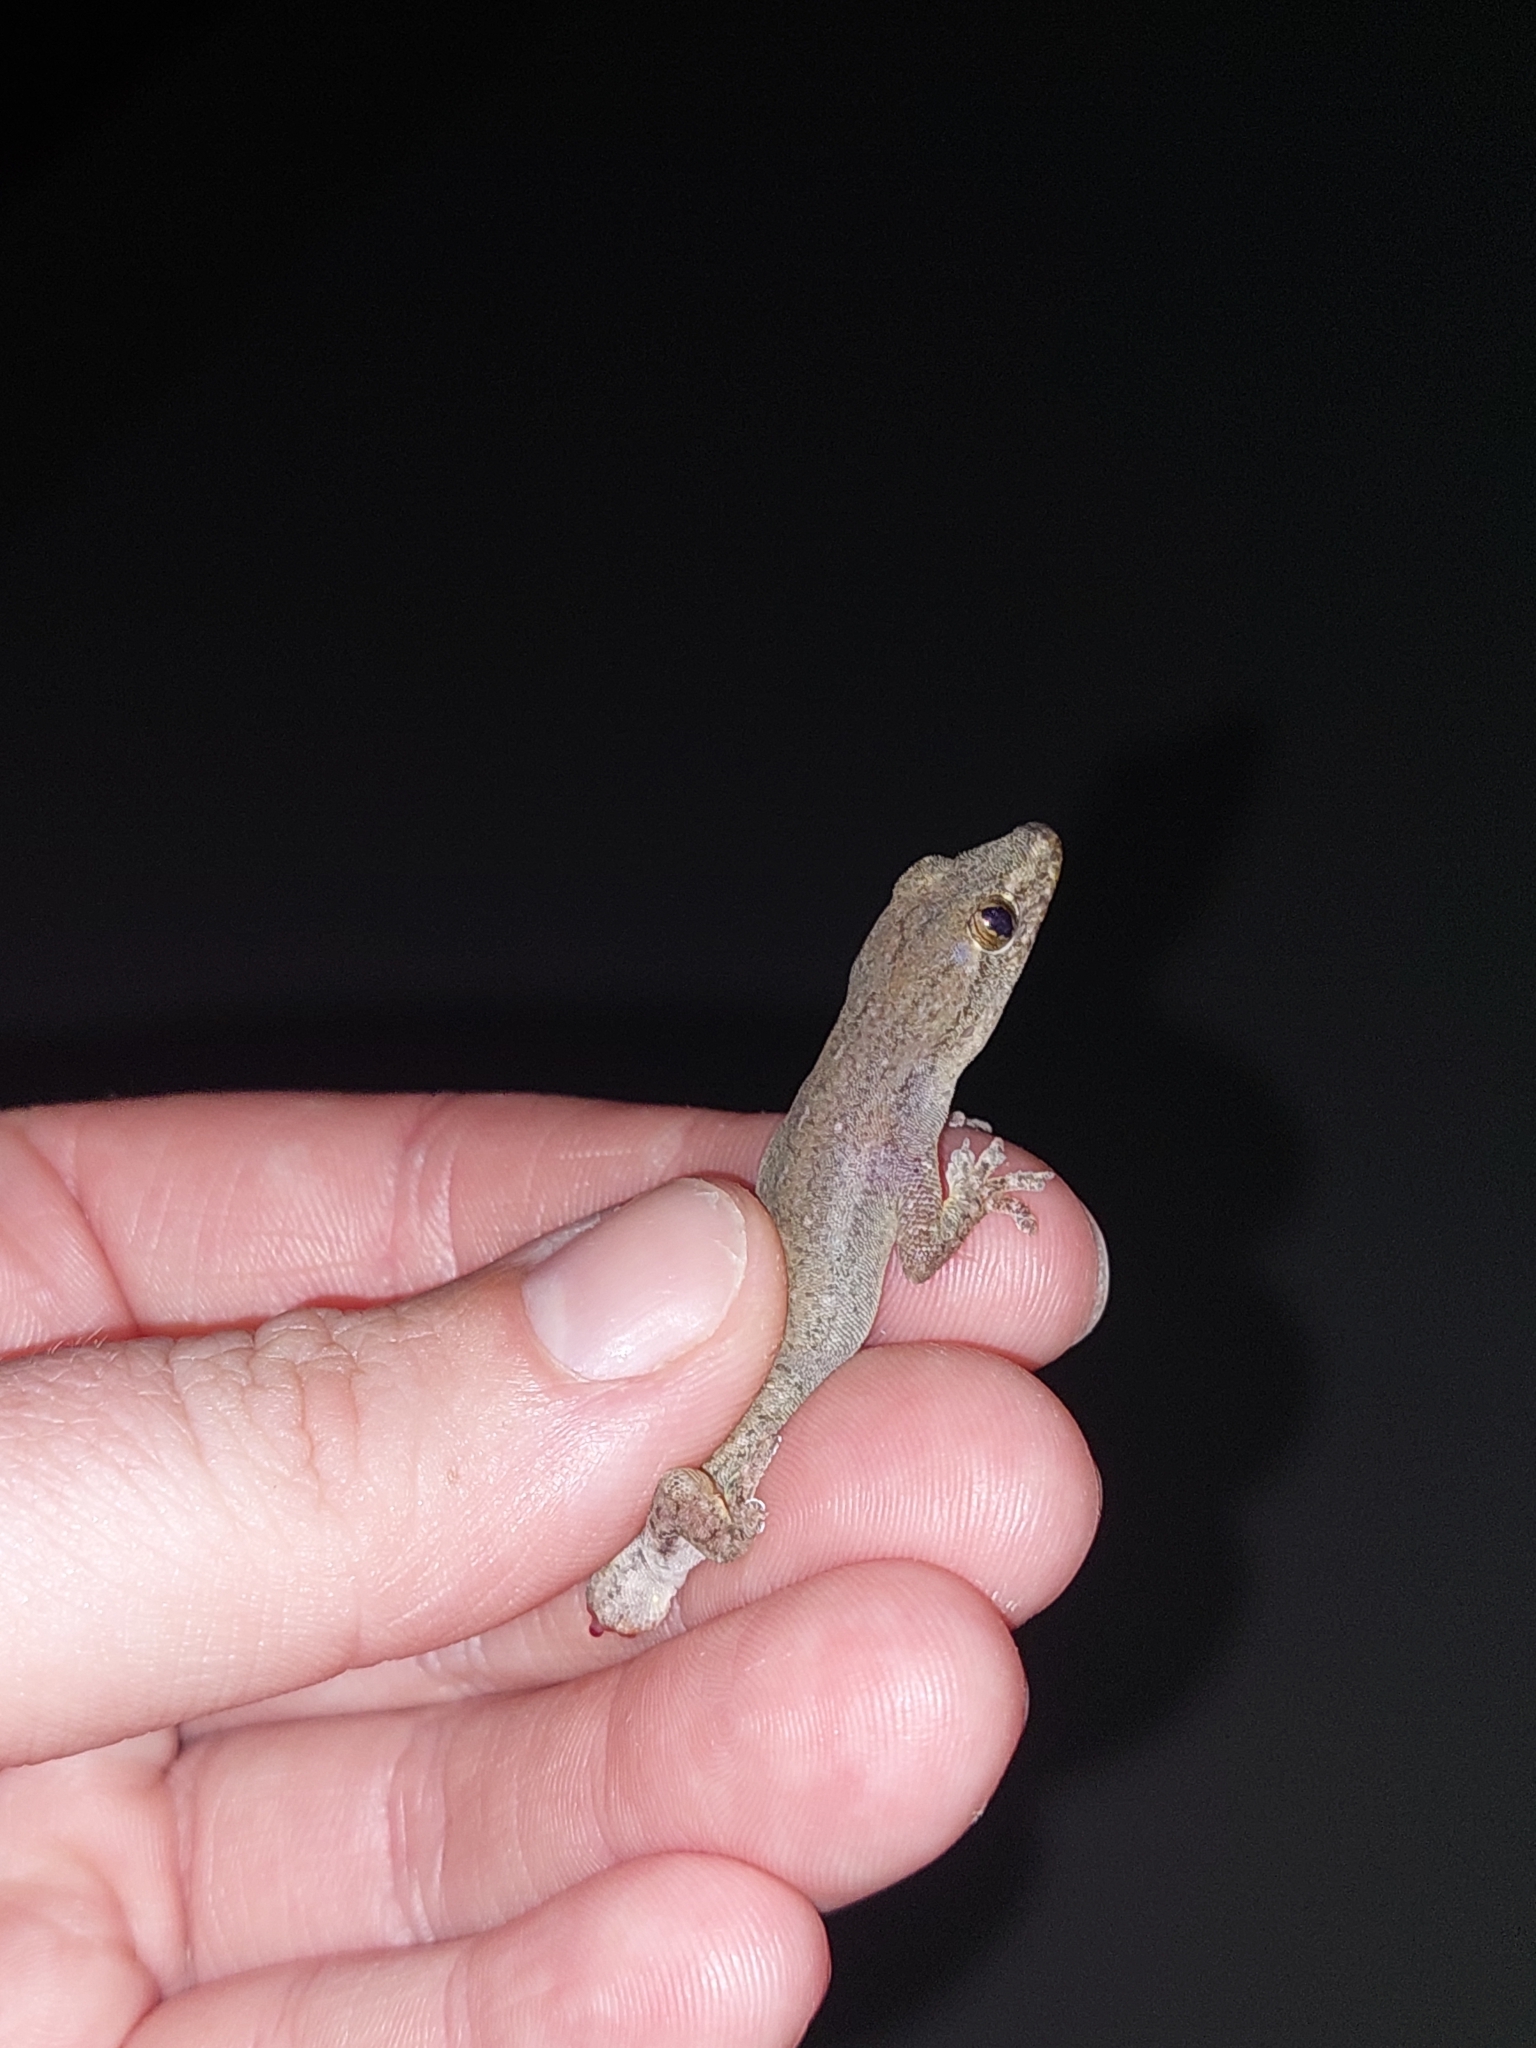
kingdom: Animalia
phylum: Chordata
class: Squamata
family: Gekkonidae
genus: Hemidactylus
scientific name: Hemidactylus frenatus
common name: Common house gecko
